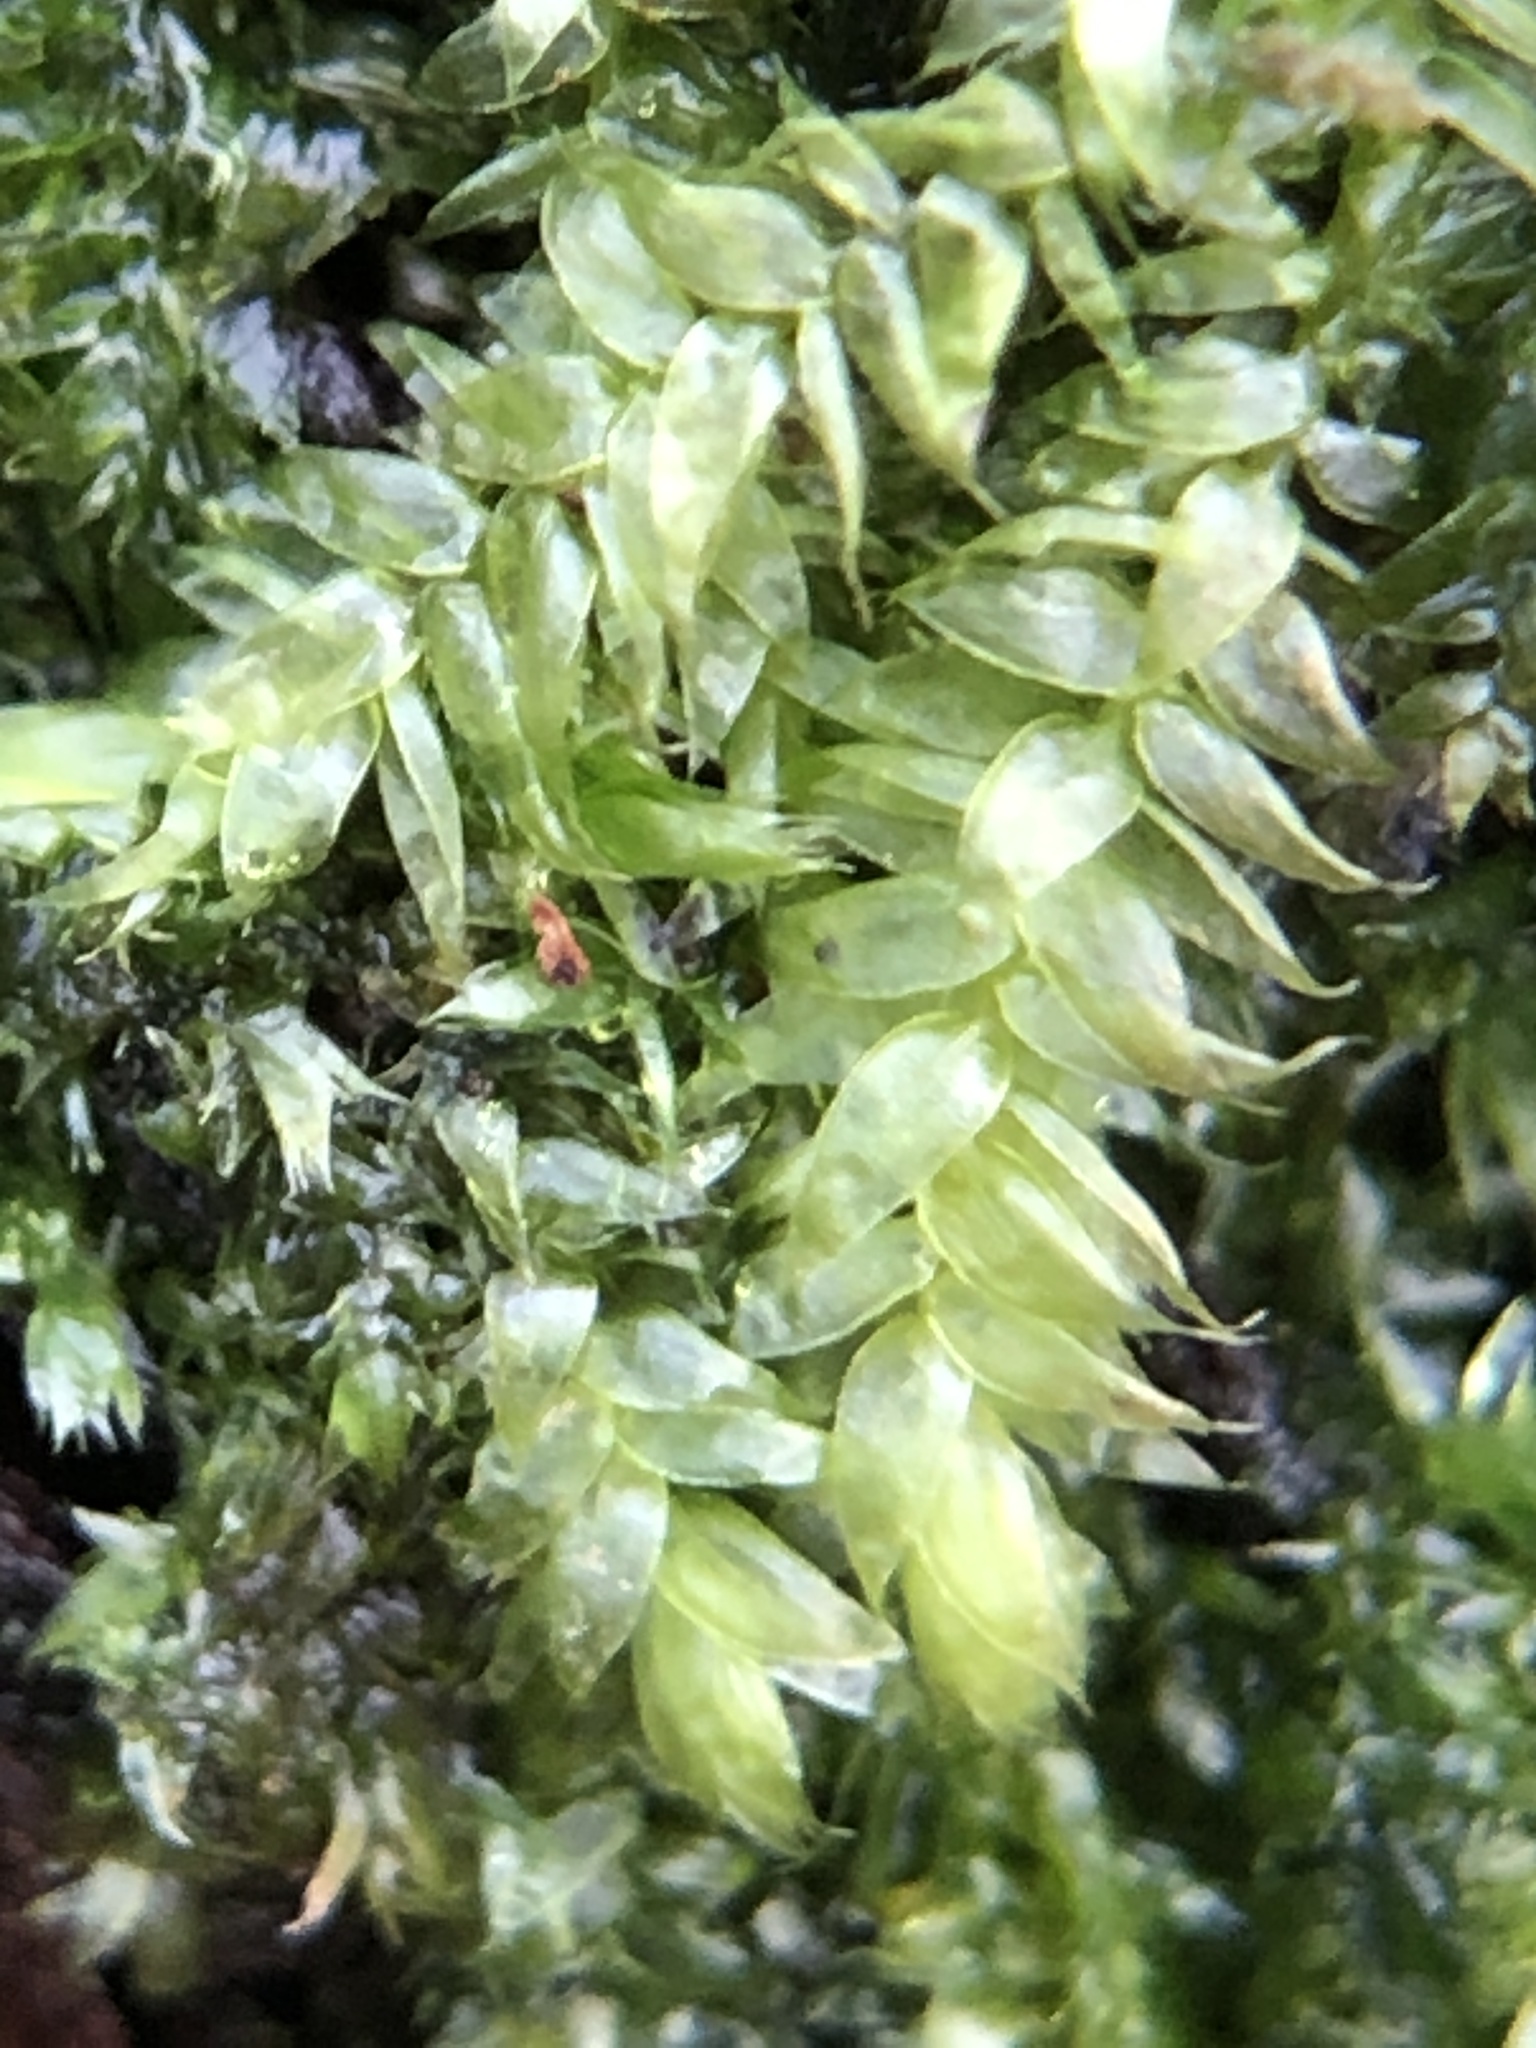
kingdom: Plantae
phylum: Bryophyta
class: Bryopsida
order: Hypnales
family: Plagiotheciaceae
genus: Pseudotaxiphyllum
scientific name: Pseudotaxiphyllum elegans
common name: Elegant silk moss
